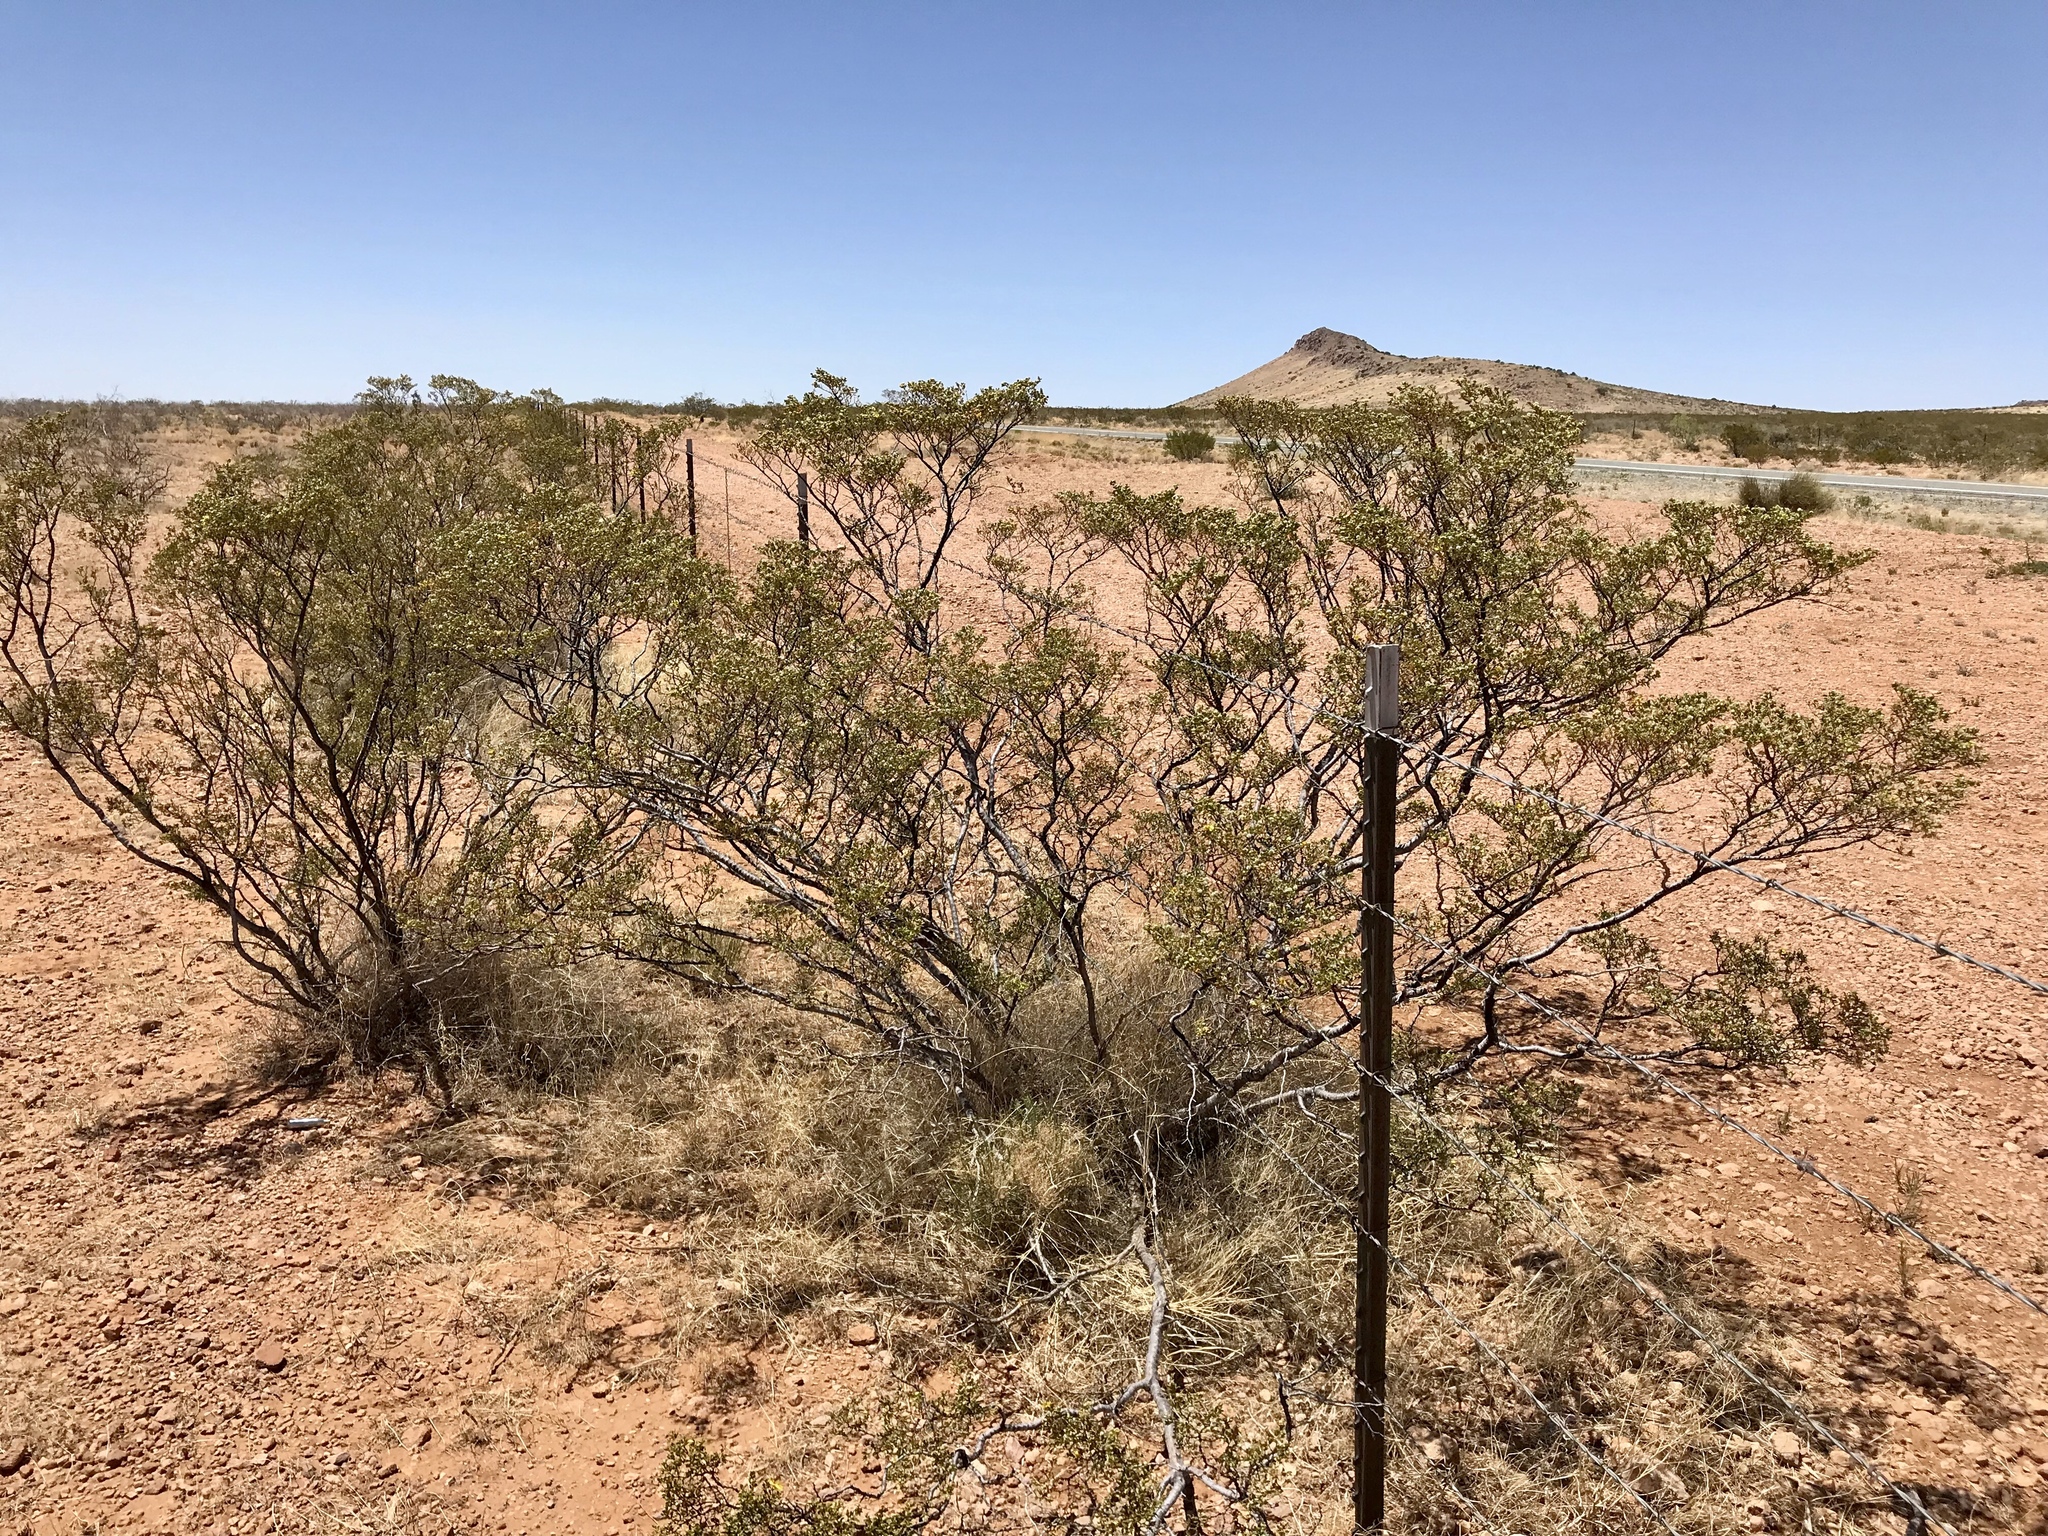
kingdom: Plantae
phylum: Tracheophyta
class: Magnoliopsida
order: Zygophyllales
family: Zygophyllaceae
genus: Larrea
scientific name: Larrea tridentata
